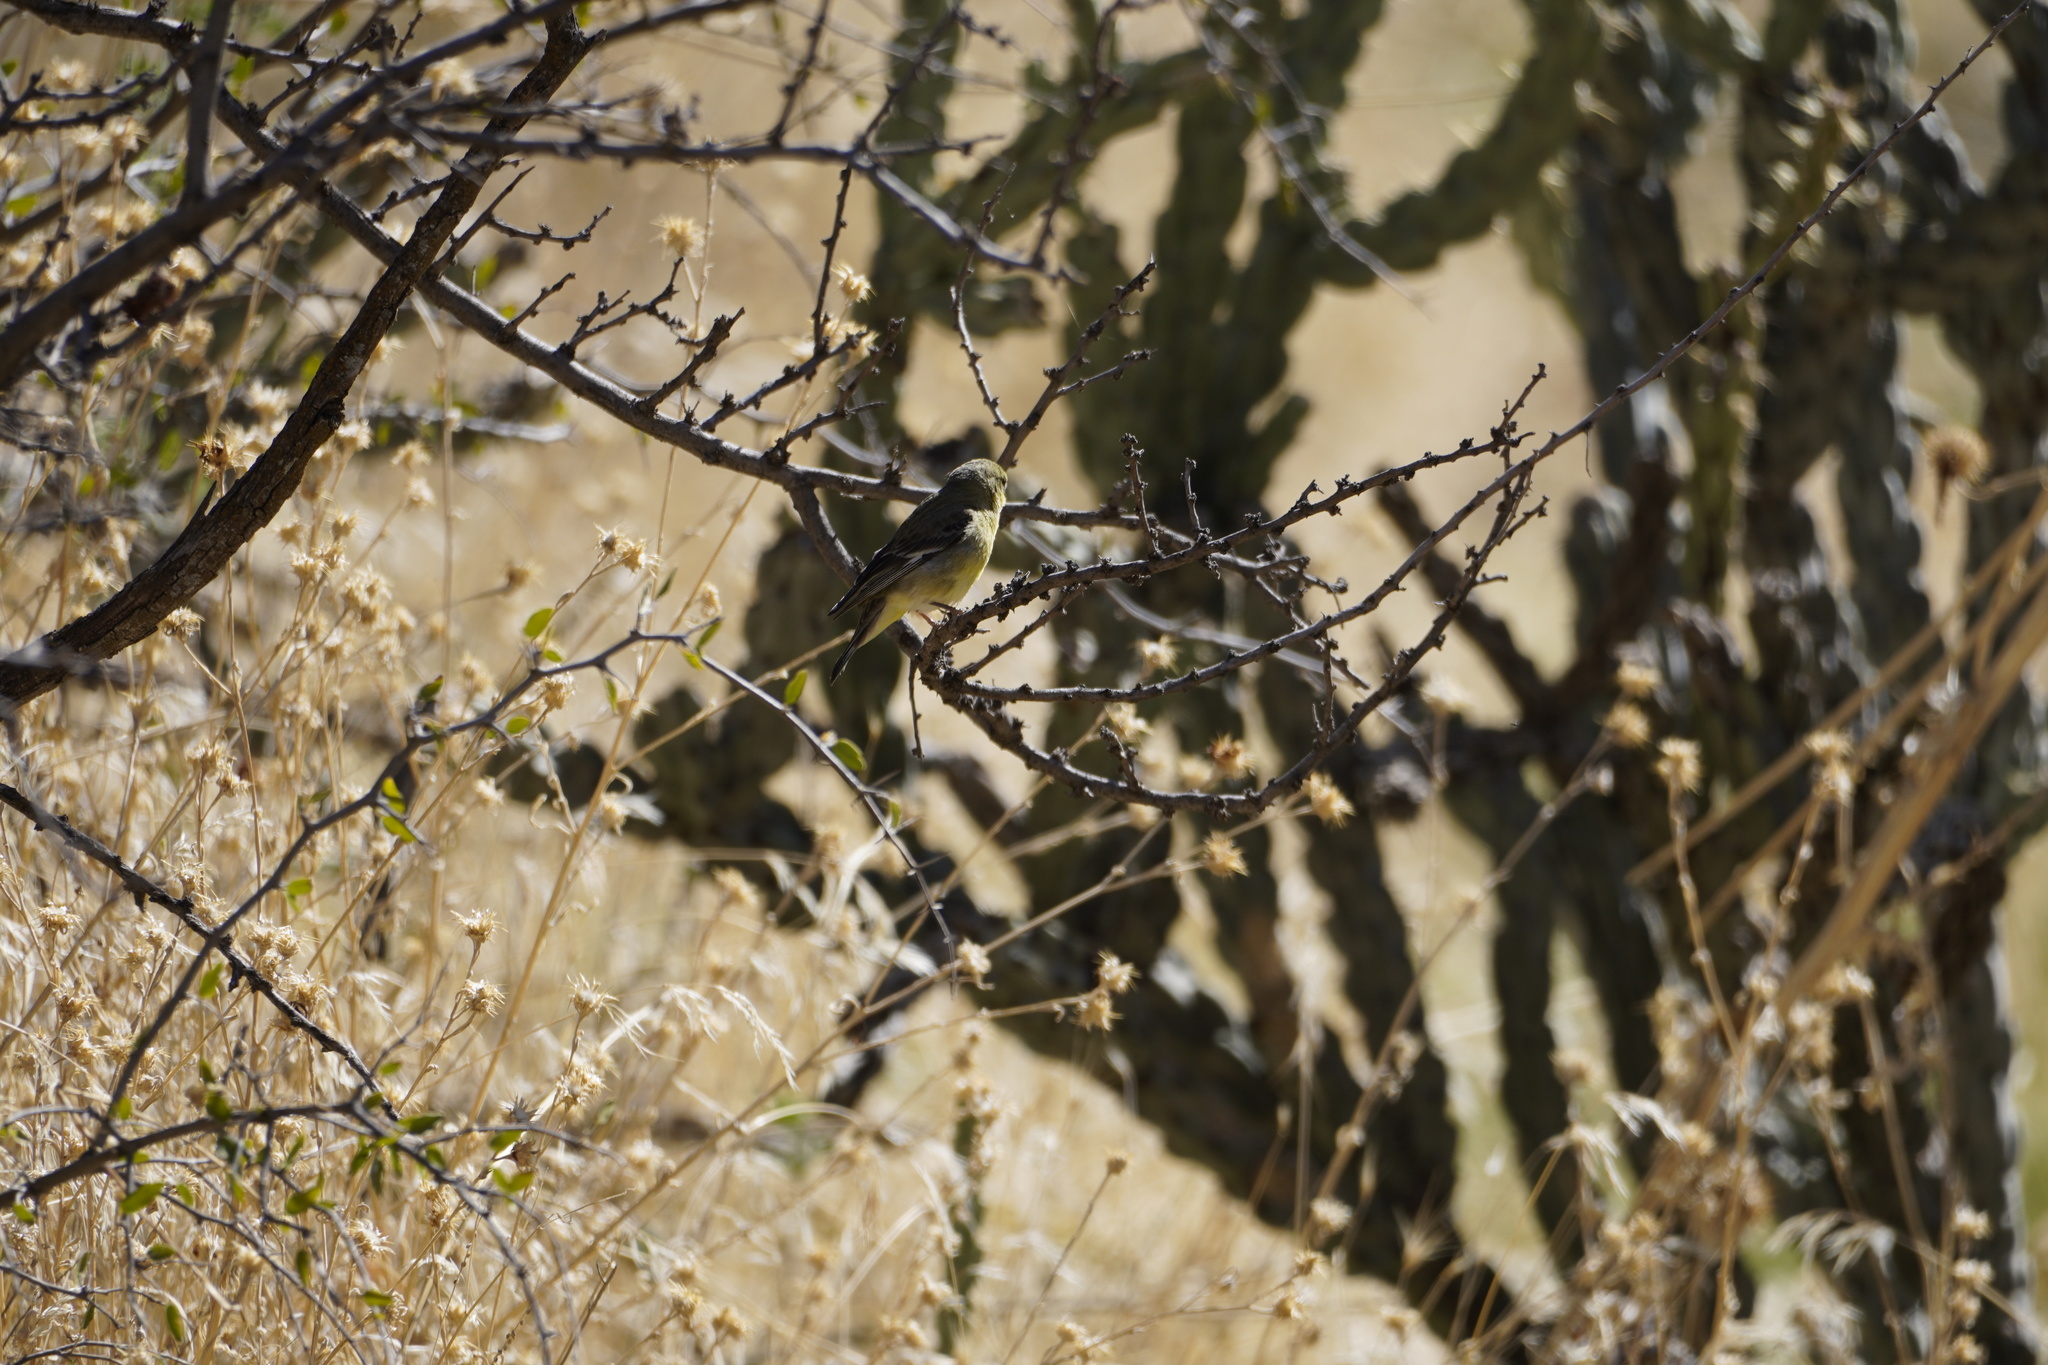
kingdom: Animalia
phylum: Chordata
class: Aves
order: Passeriformes
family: Fringillidae
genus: Spinus
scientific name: Spinus psaltria
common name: Lesser goldfinch
